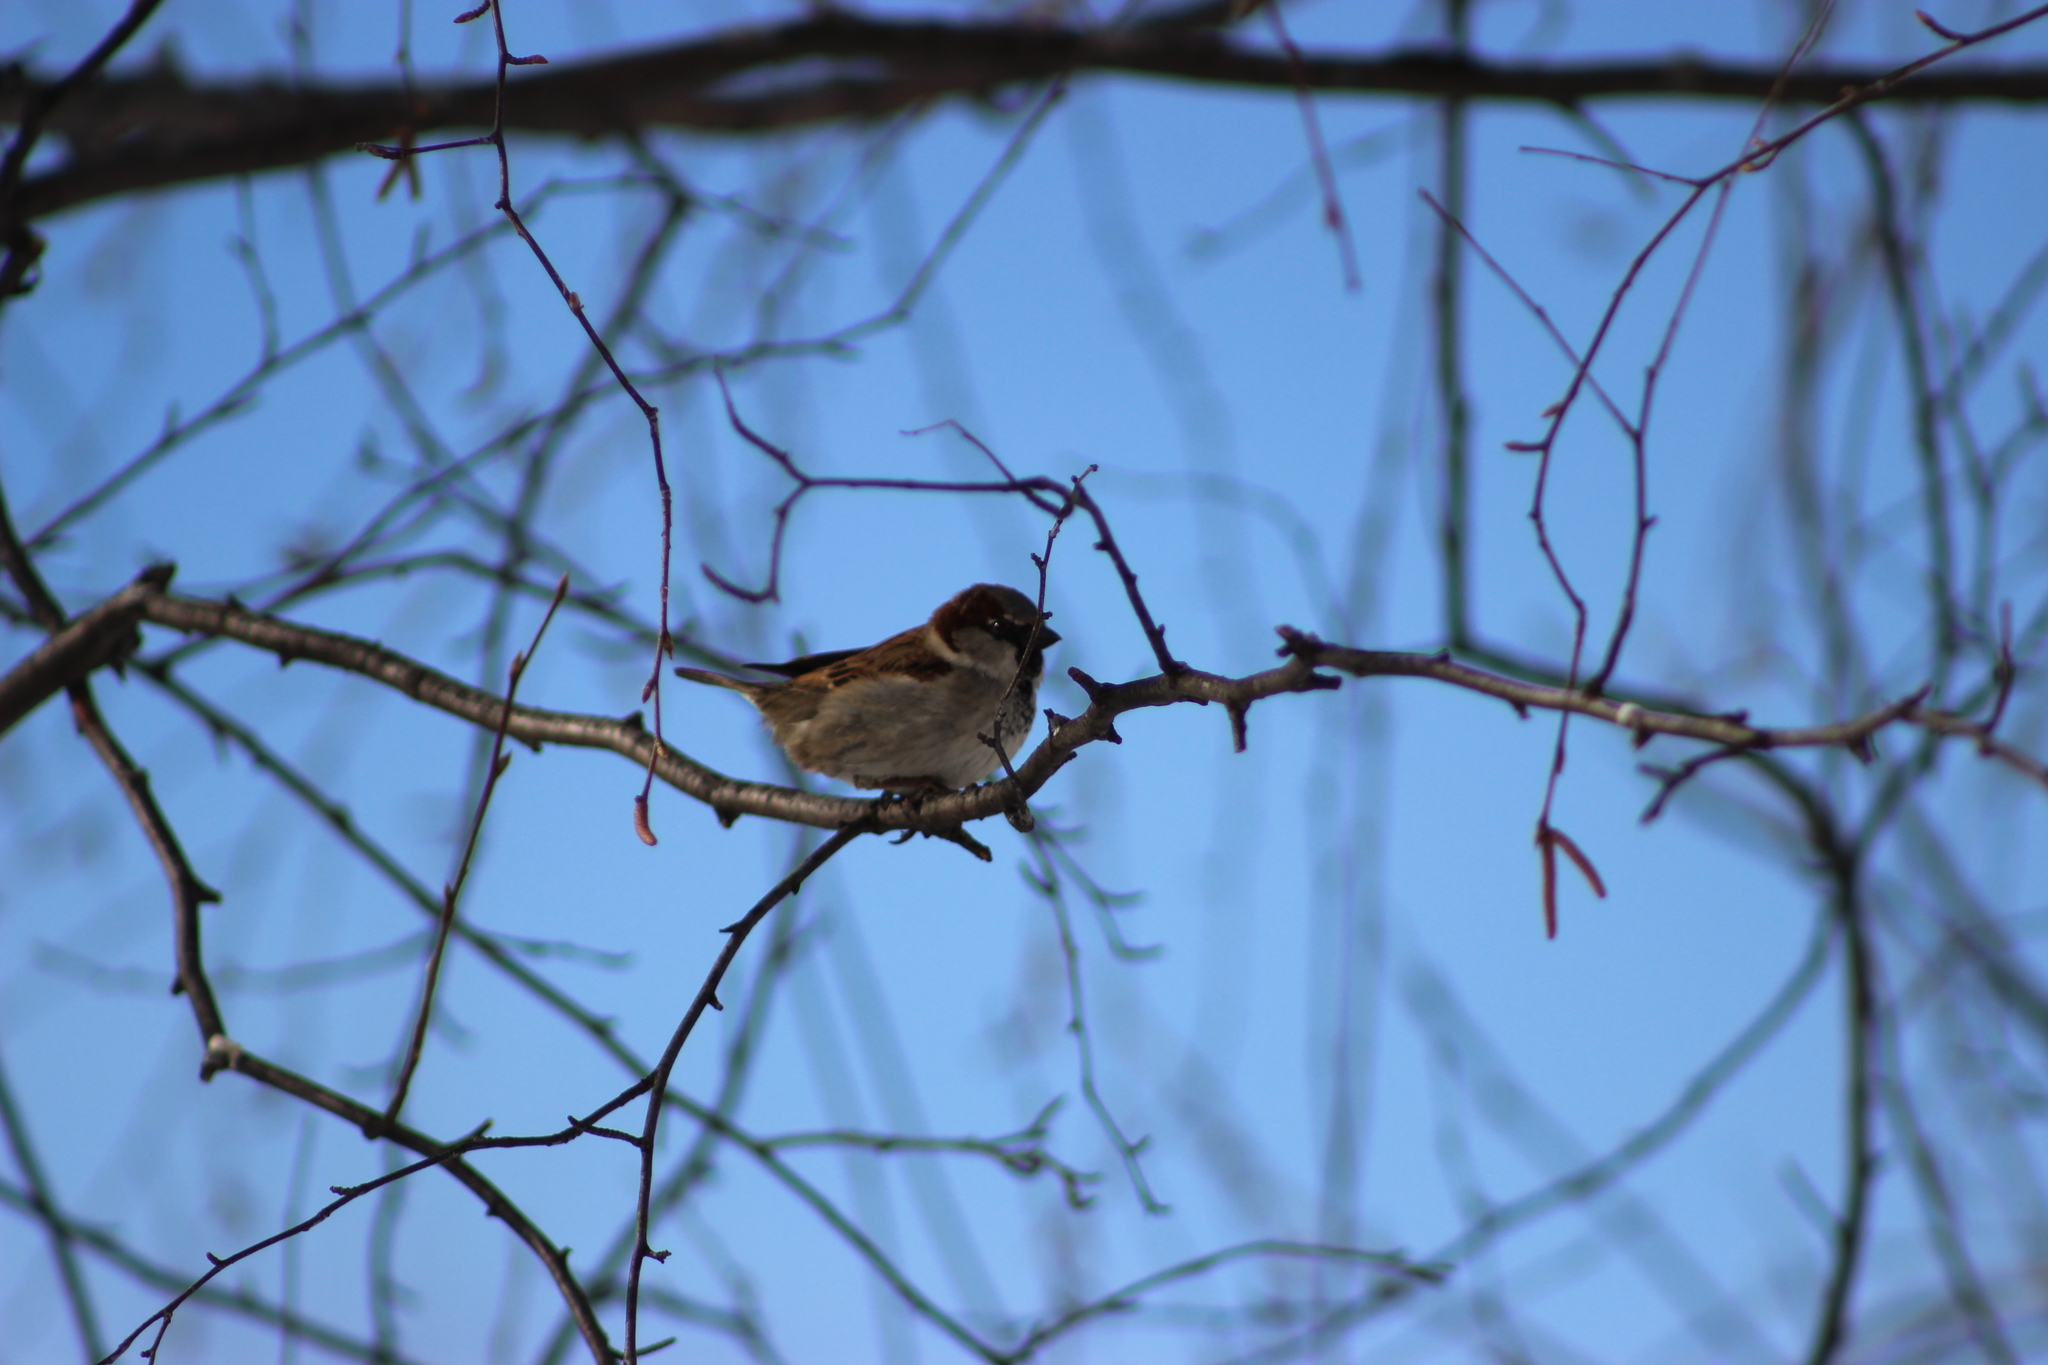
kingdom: Animalia
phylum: Chordata
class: Aves
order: Passeriformes
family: Passeridae
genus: Passer
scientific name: Passer domesticus
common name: House sparrow
